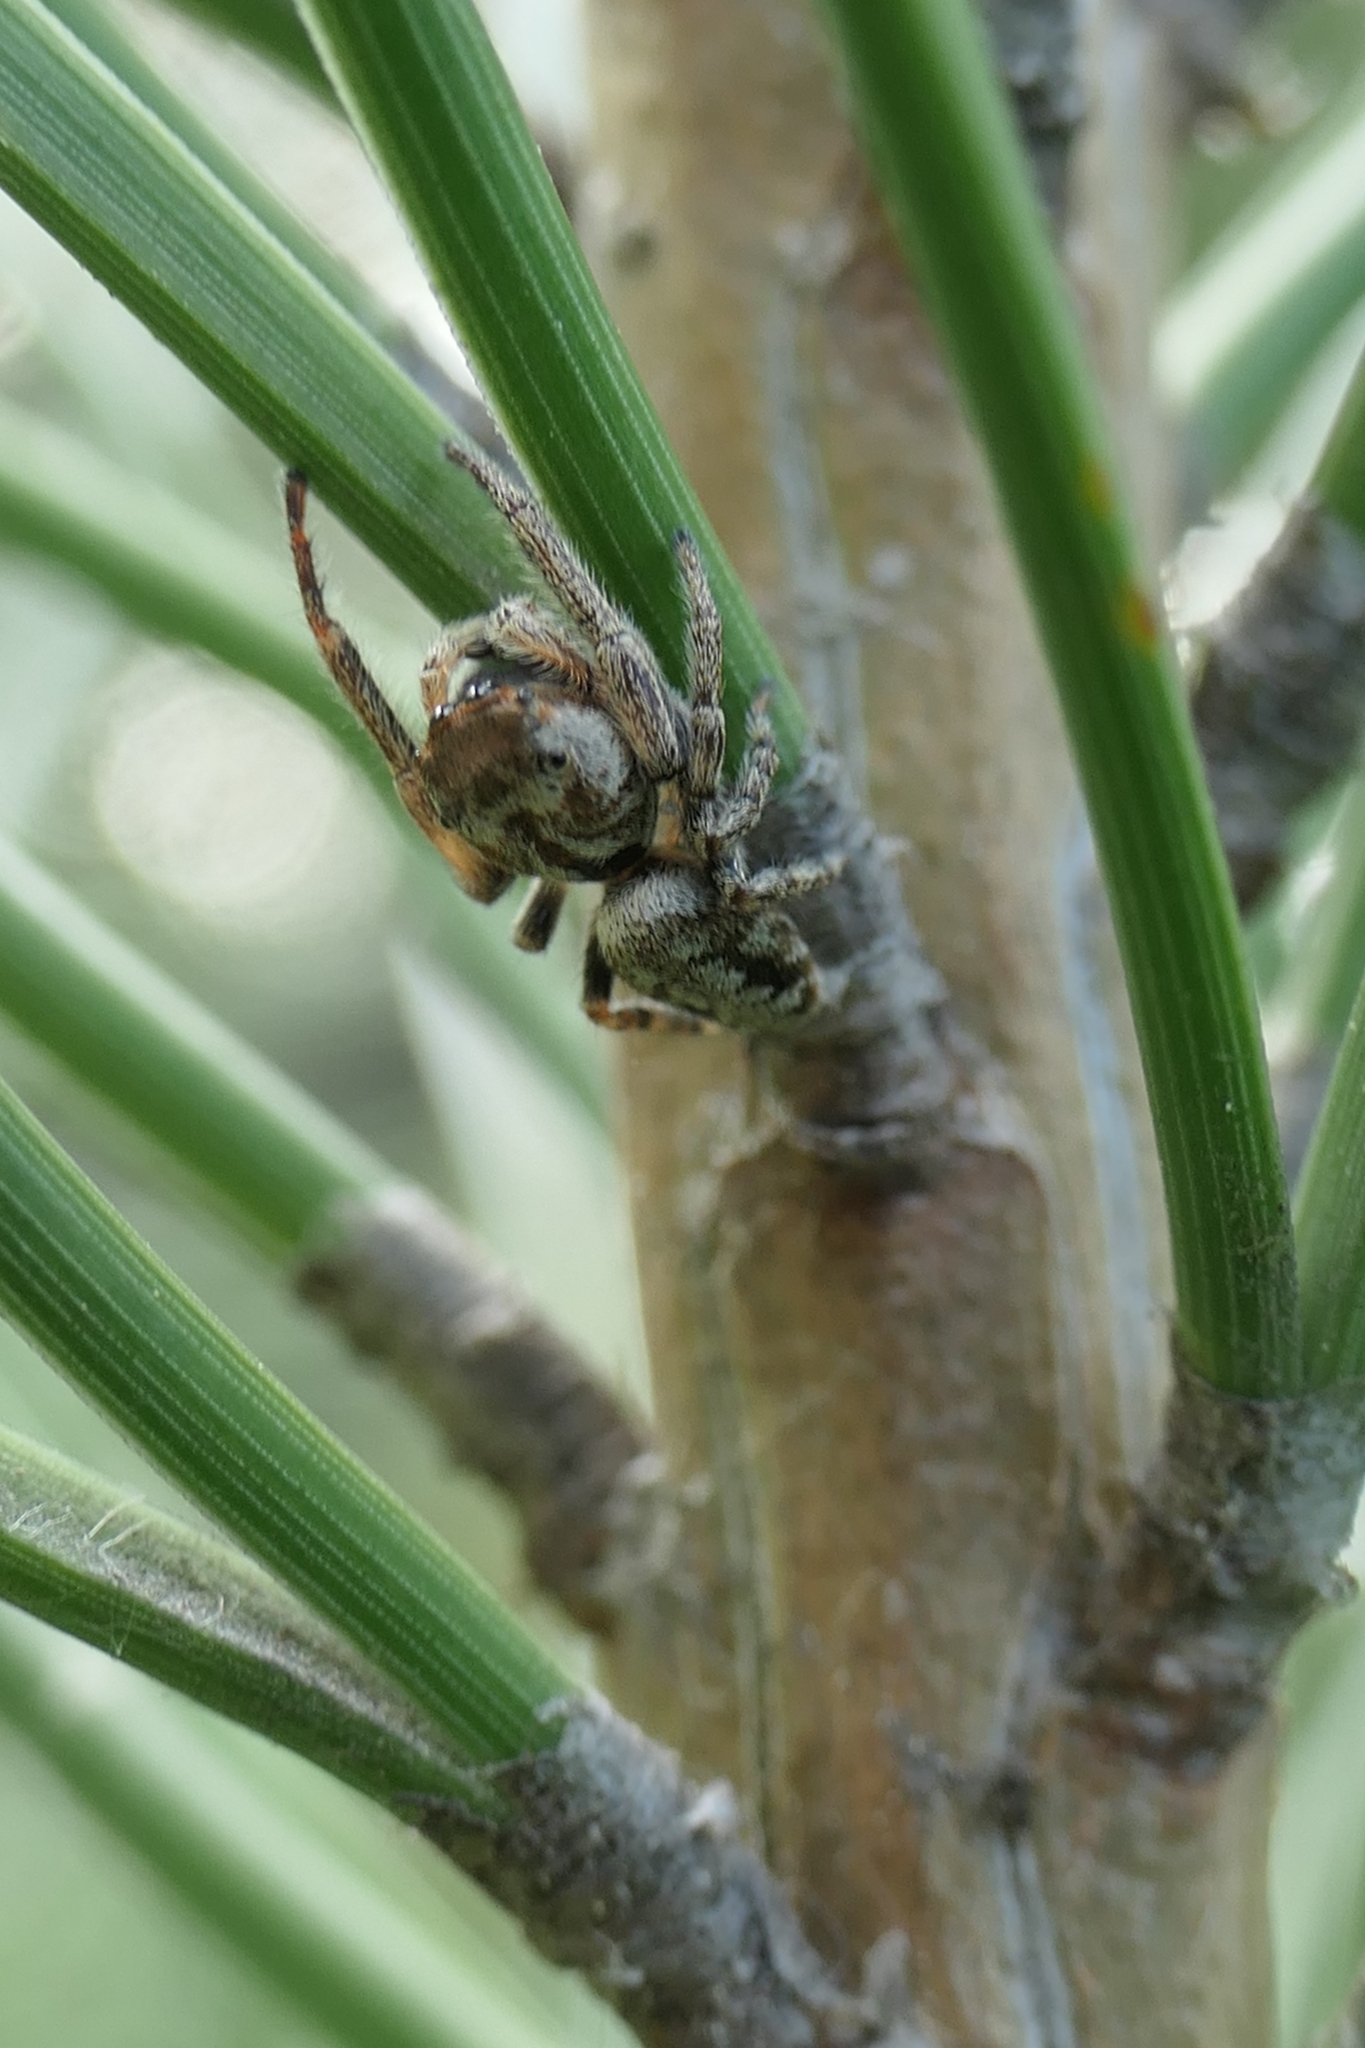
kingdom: Animalia
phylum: Arthropoda
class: Arachnida
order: Araneae
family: Salticidae
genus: Opisthoncus
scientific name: Opisthoncus polyphemus
